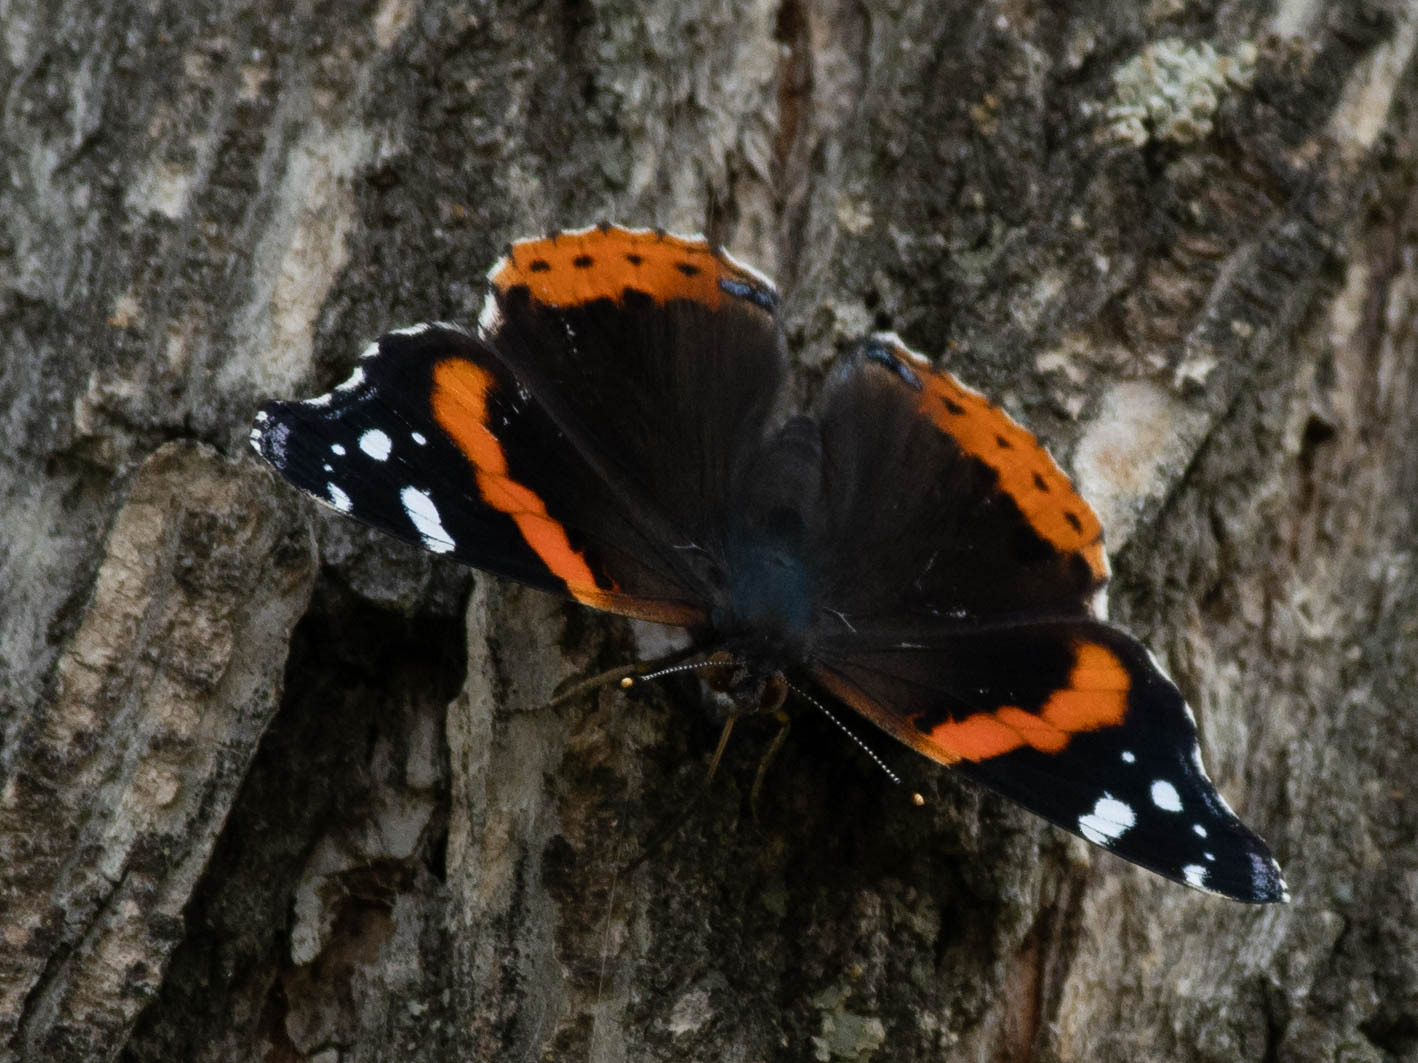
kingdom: Animalia
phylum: Arthropoda
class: Insecta
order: Lepidoptera
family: Nymphalidae
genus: Vanessa
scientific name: Vanessa atalanta
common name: Red admiral
